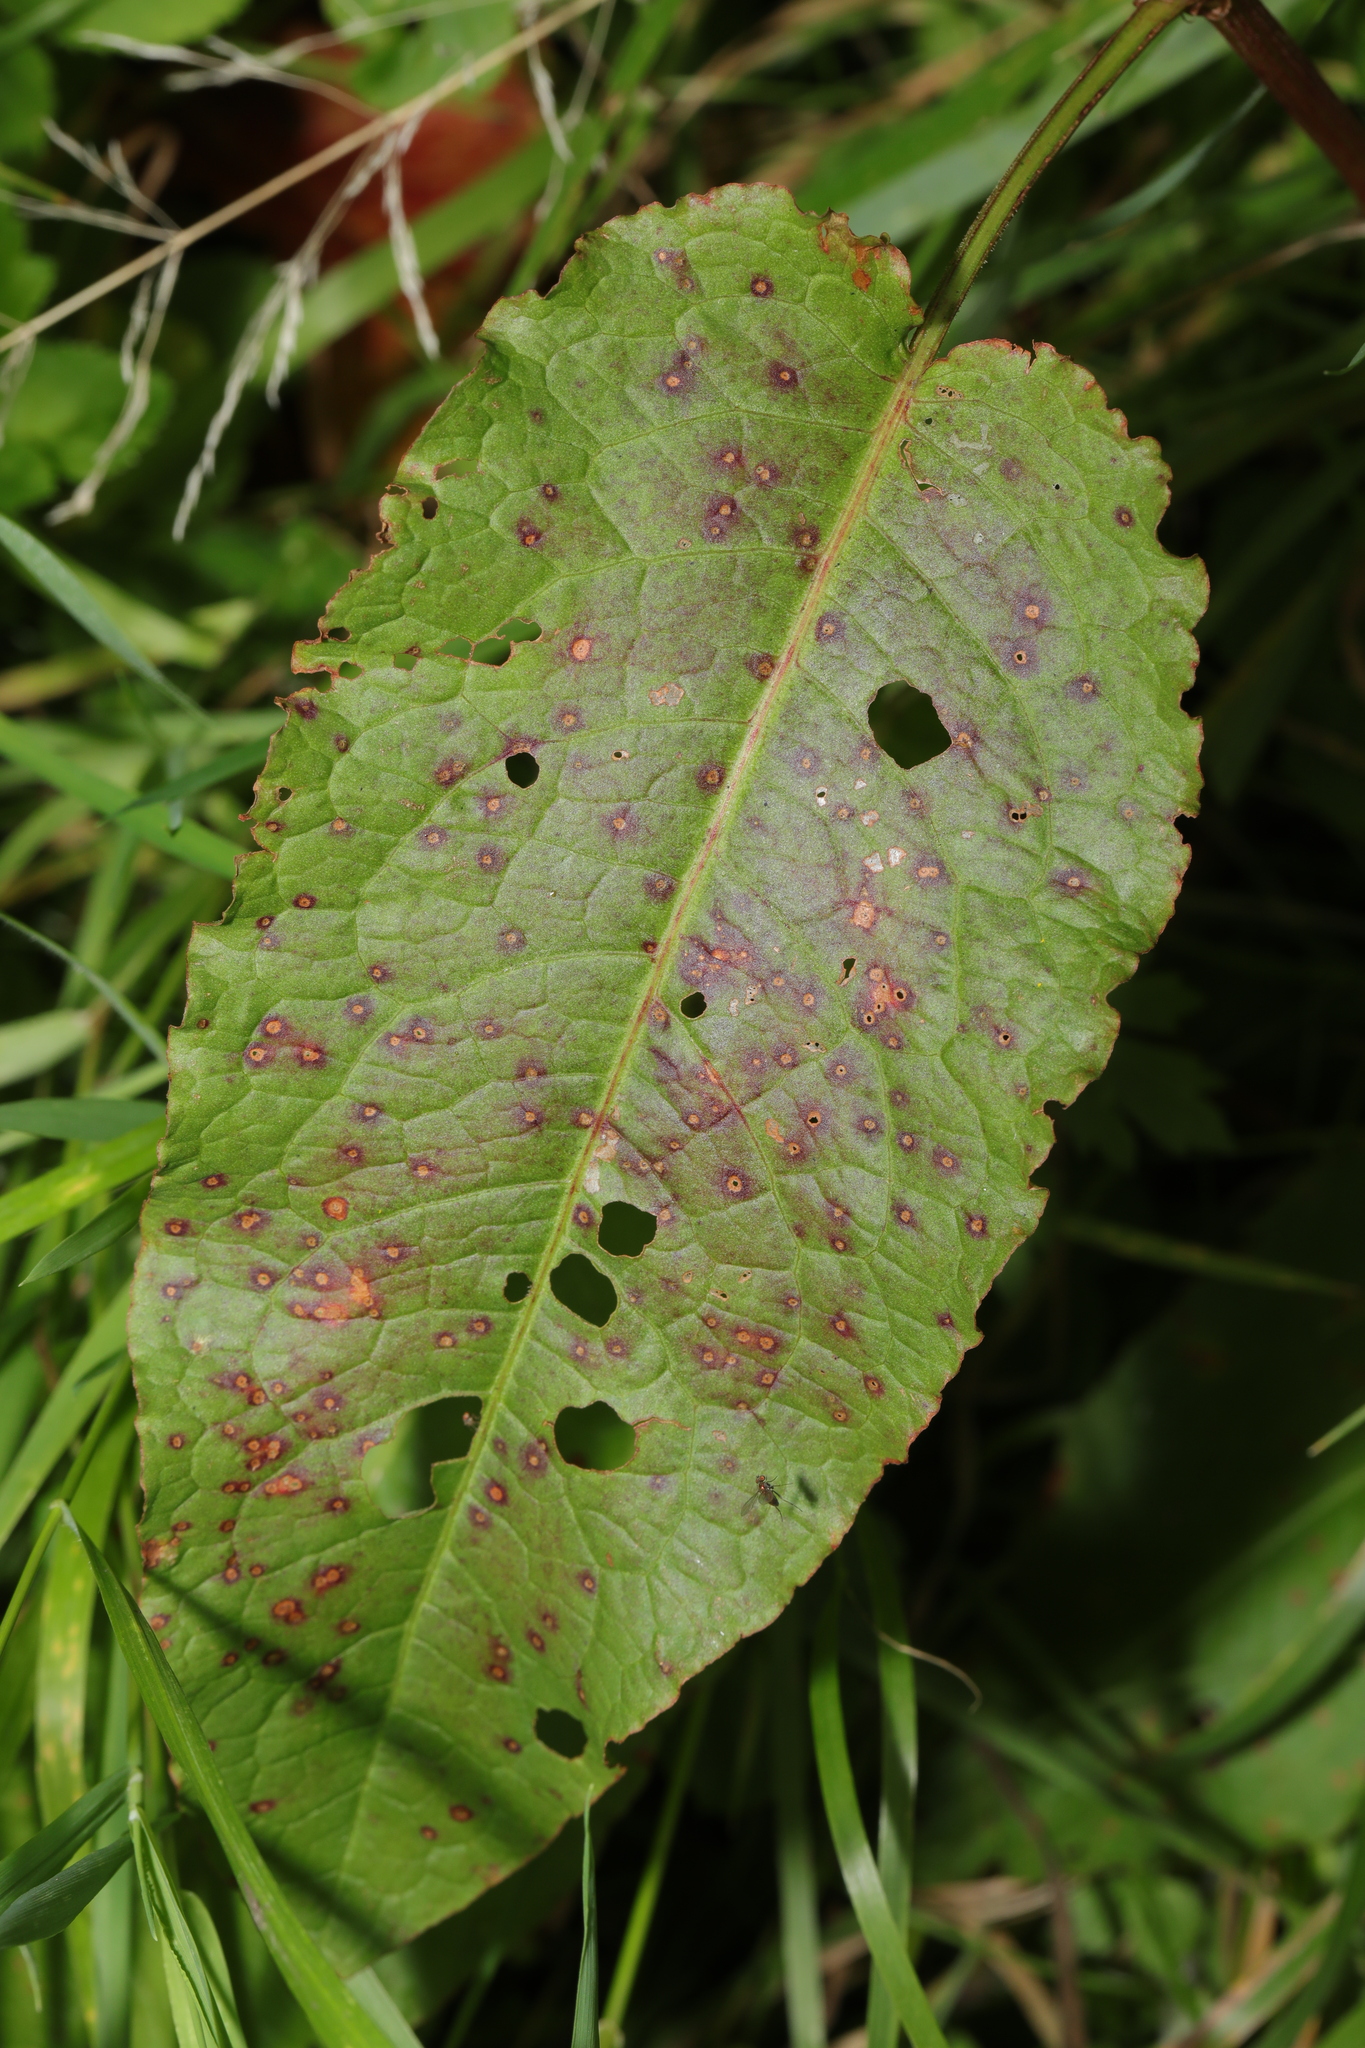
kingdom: Plantae
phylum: Tracheophyta
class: Magnoliopsida
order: Caryophyllales
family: Polygonaceae
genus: Rumex
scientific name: Rumex obtusifolius
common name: Bitter dock
